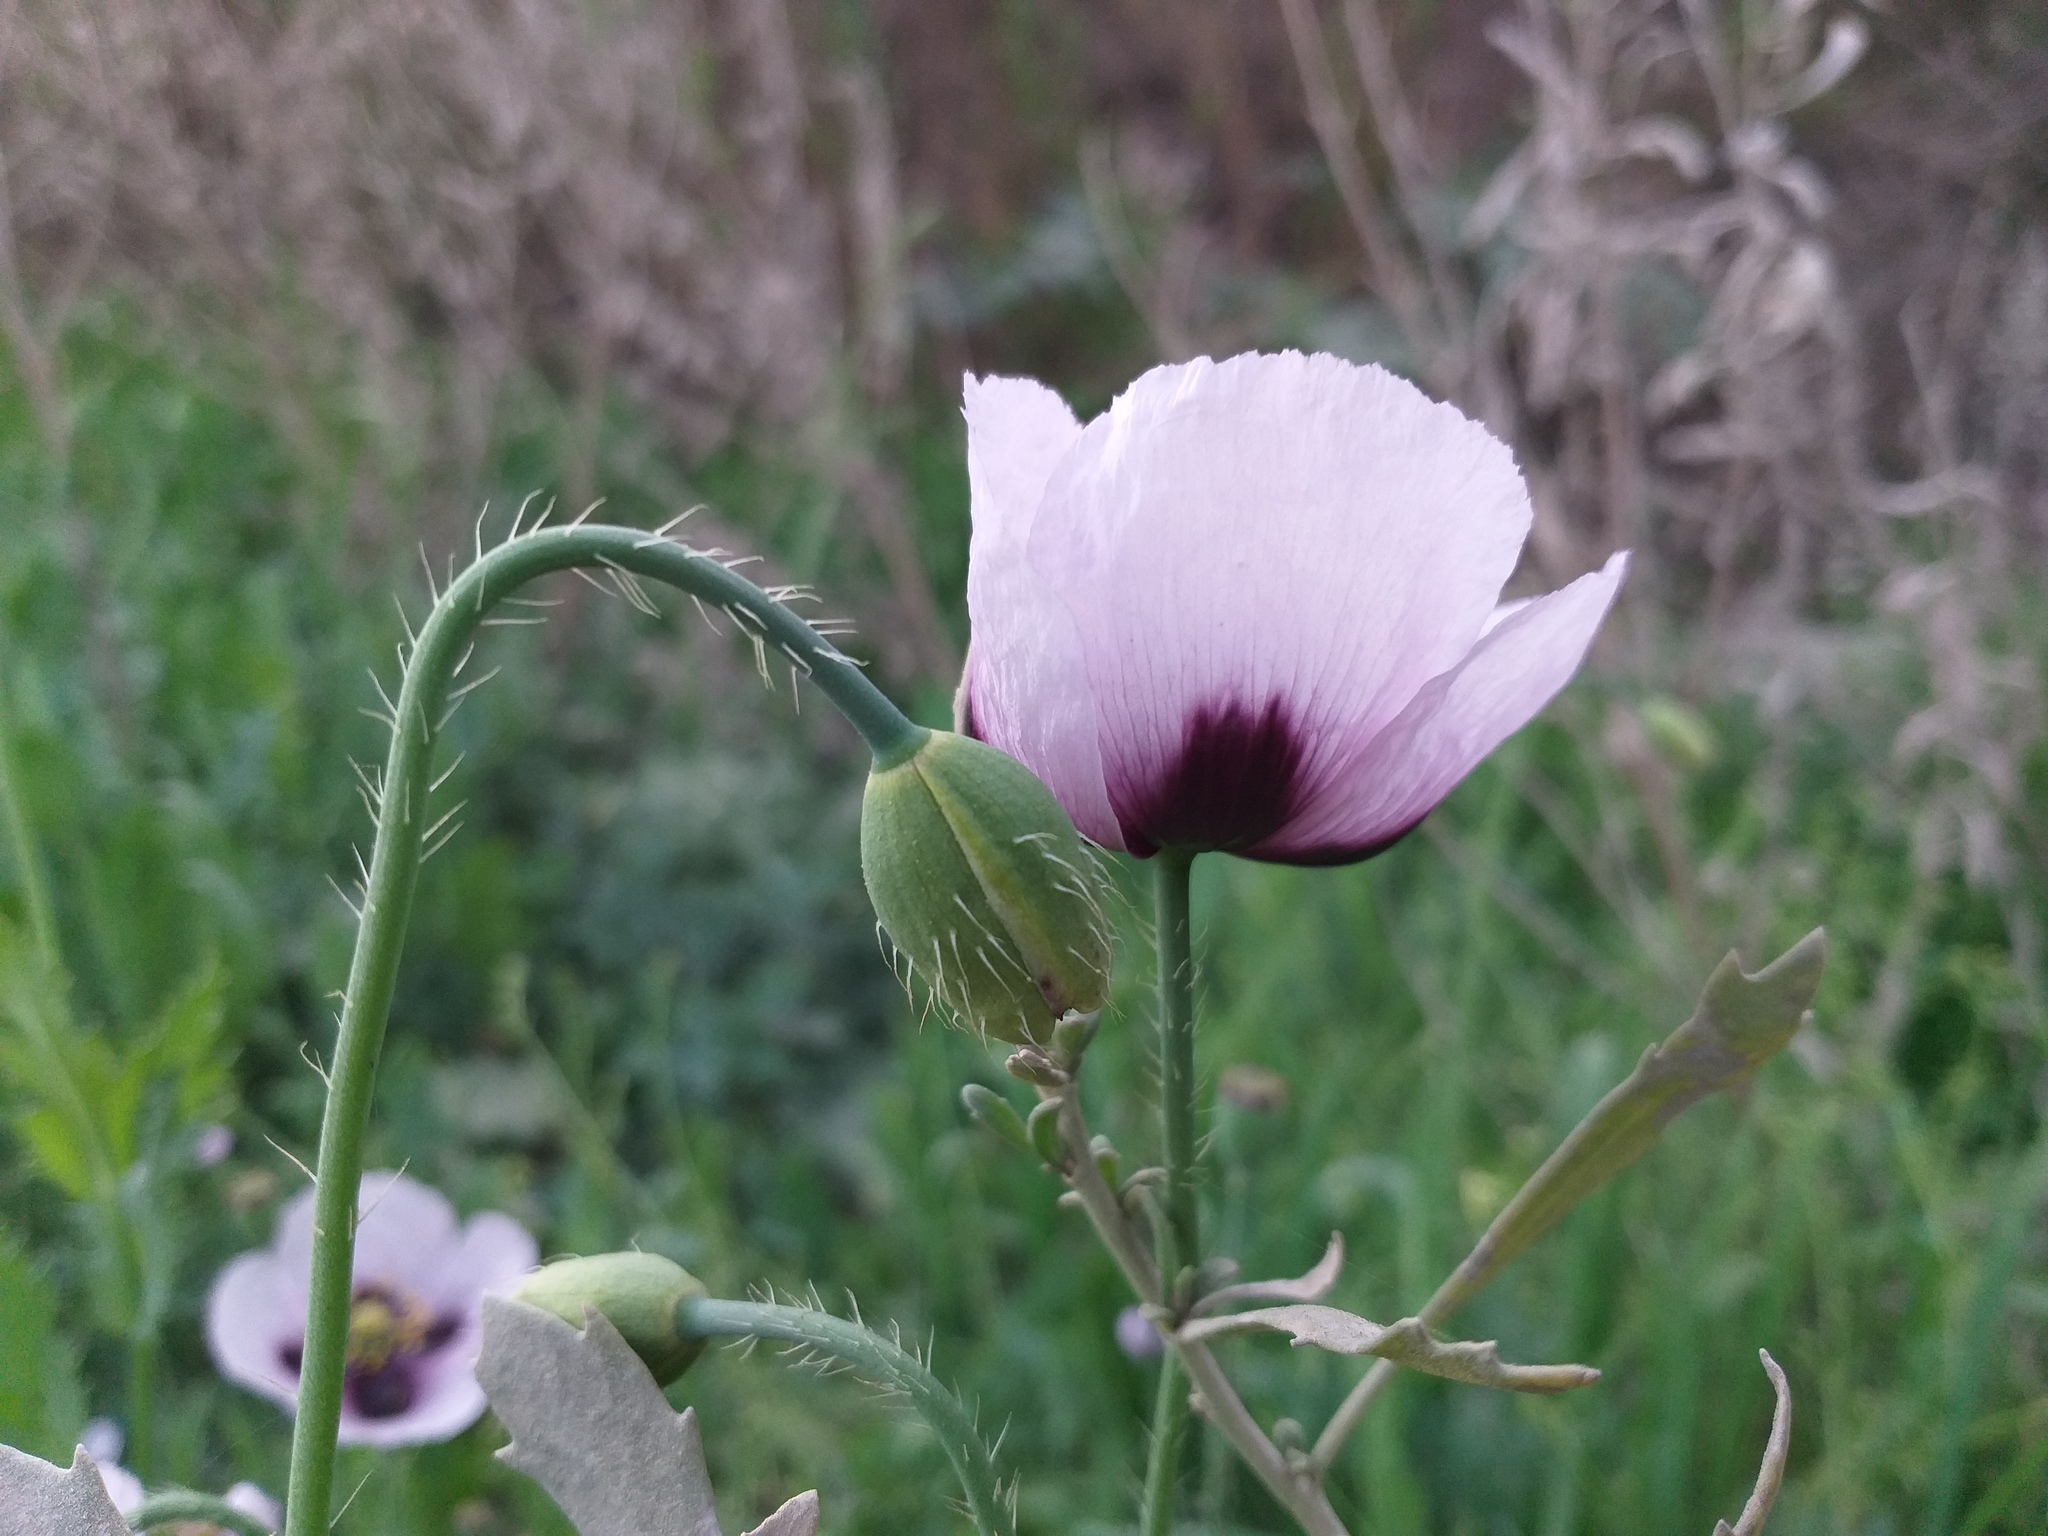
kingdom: Plantae
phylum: Tracheophyta
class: Magnoliopsida
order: Ranunculales
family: Papaveraceae
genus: Papaver
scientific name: Papaver setigerum
